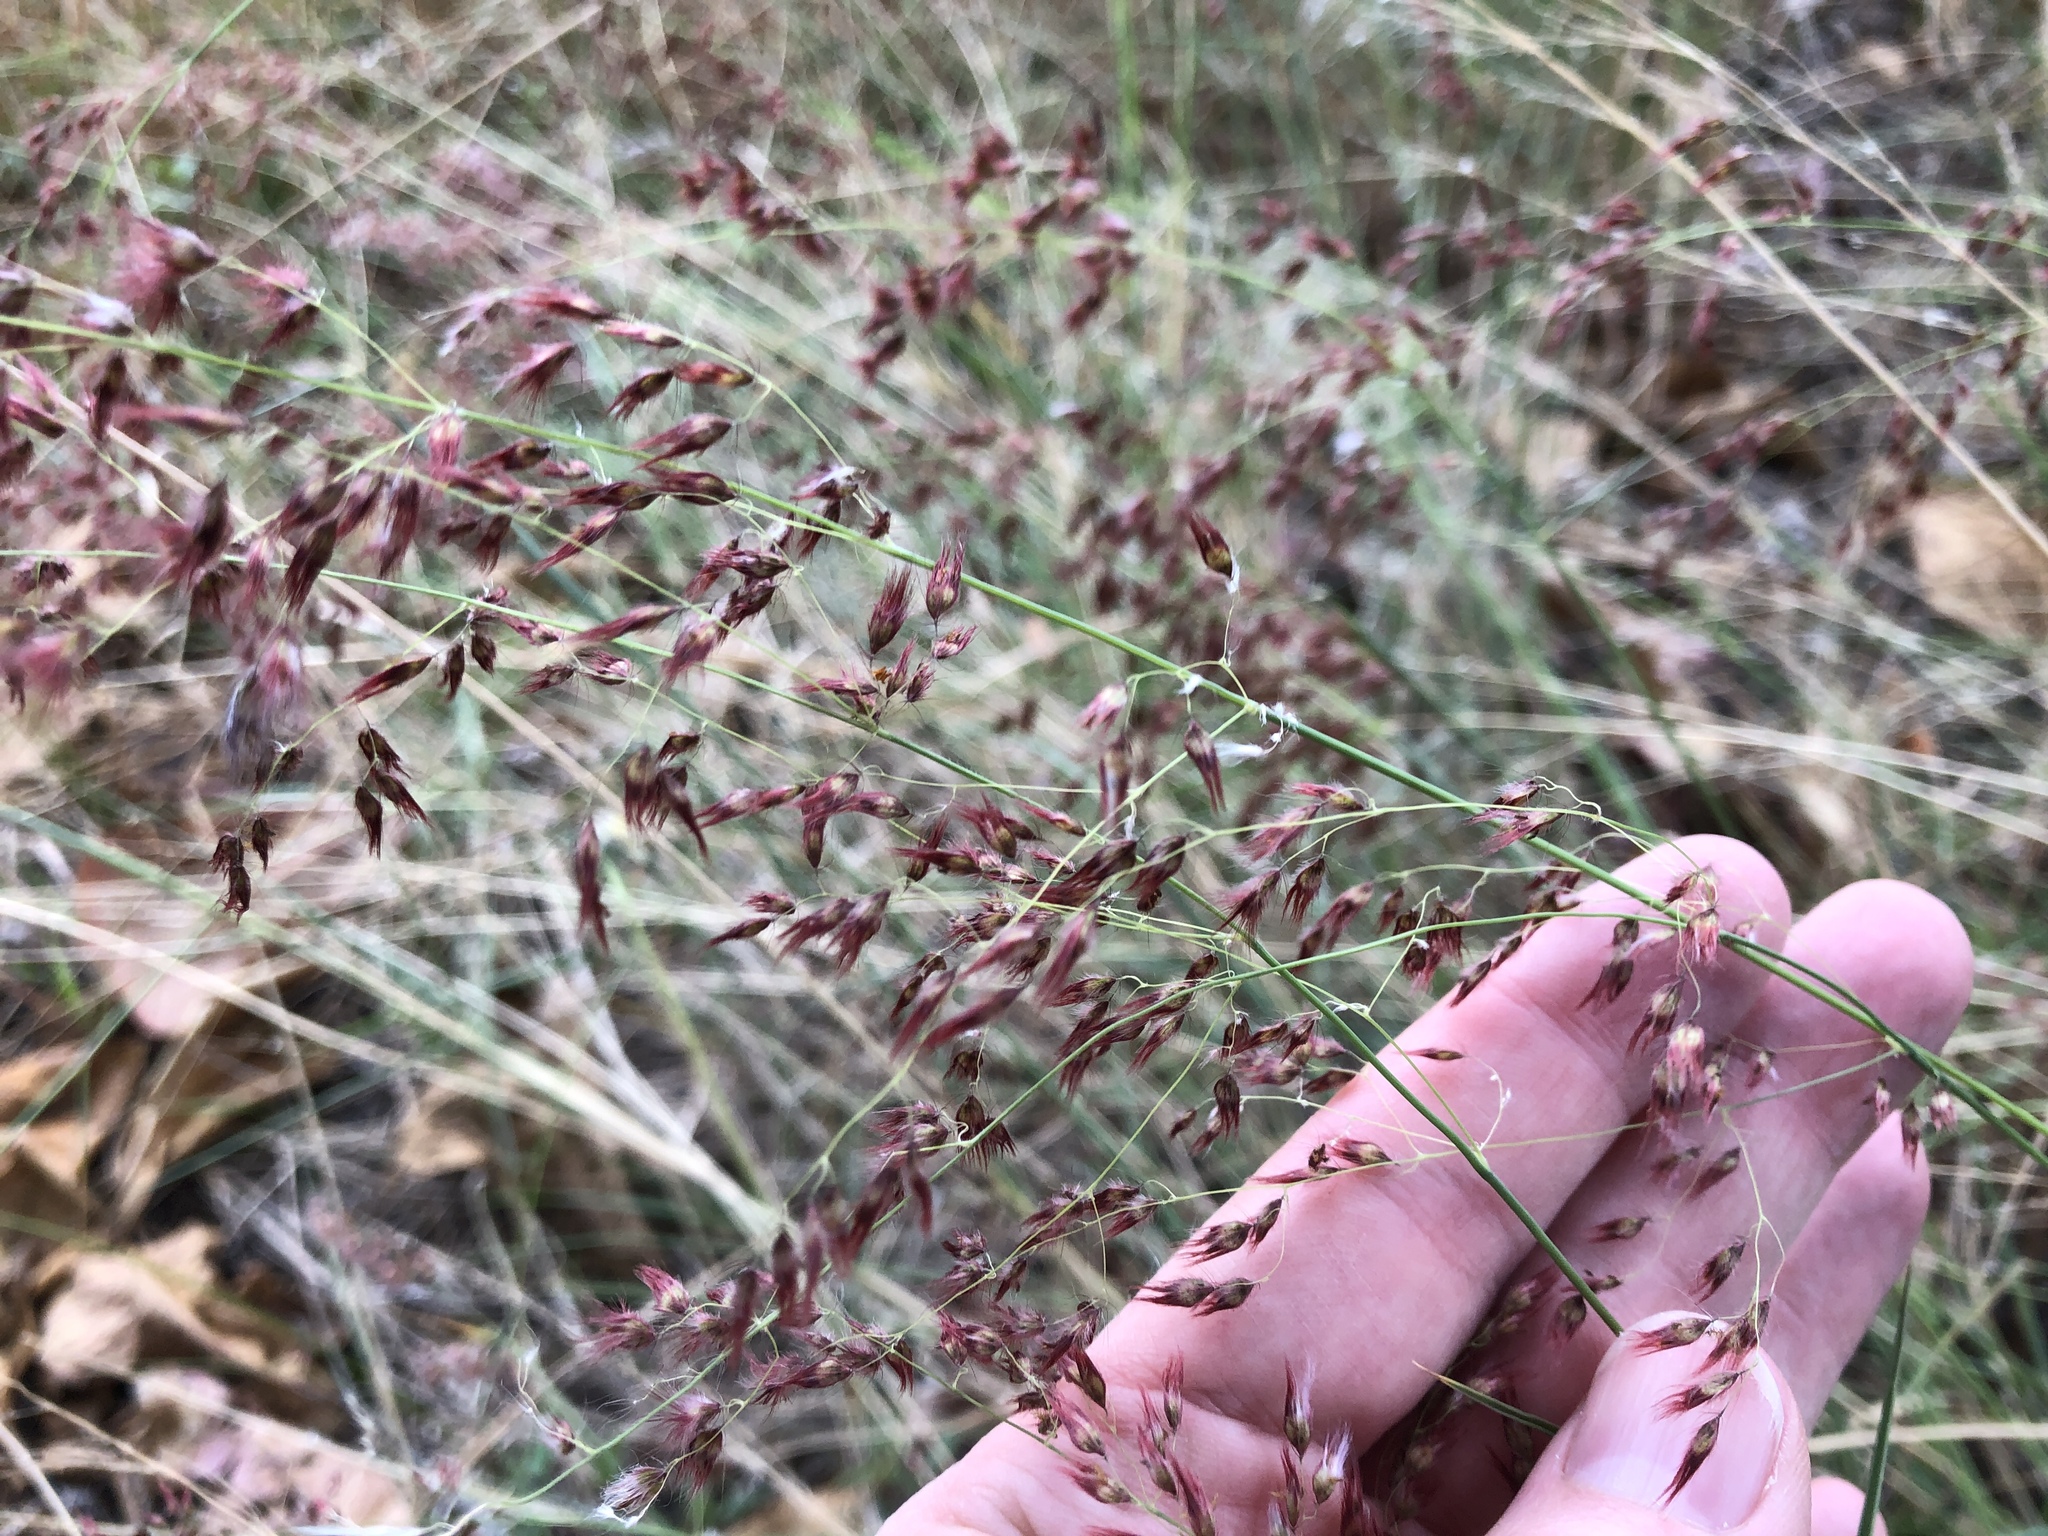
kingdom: Plantae
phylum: Tracheophyta
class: Liliopsida
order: Poales
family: Poaceae
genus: Melinis
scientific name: Melinis repens
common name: Rose natal grass
